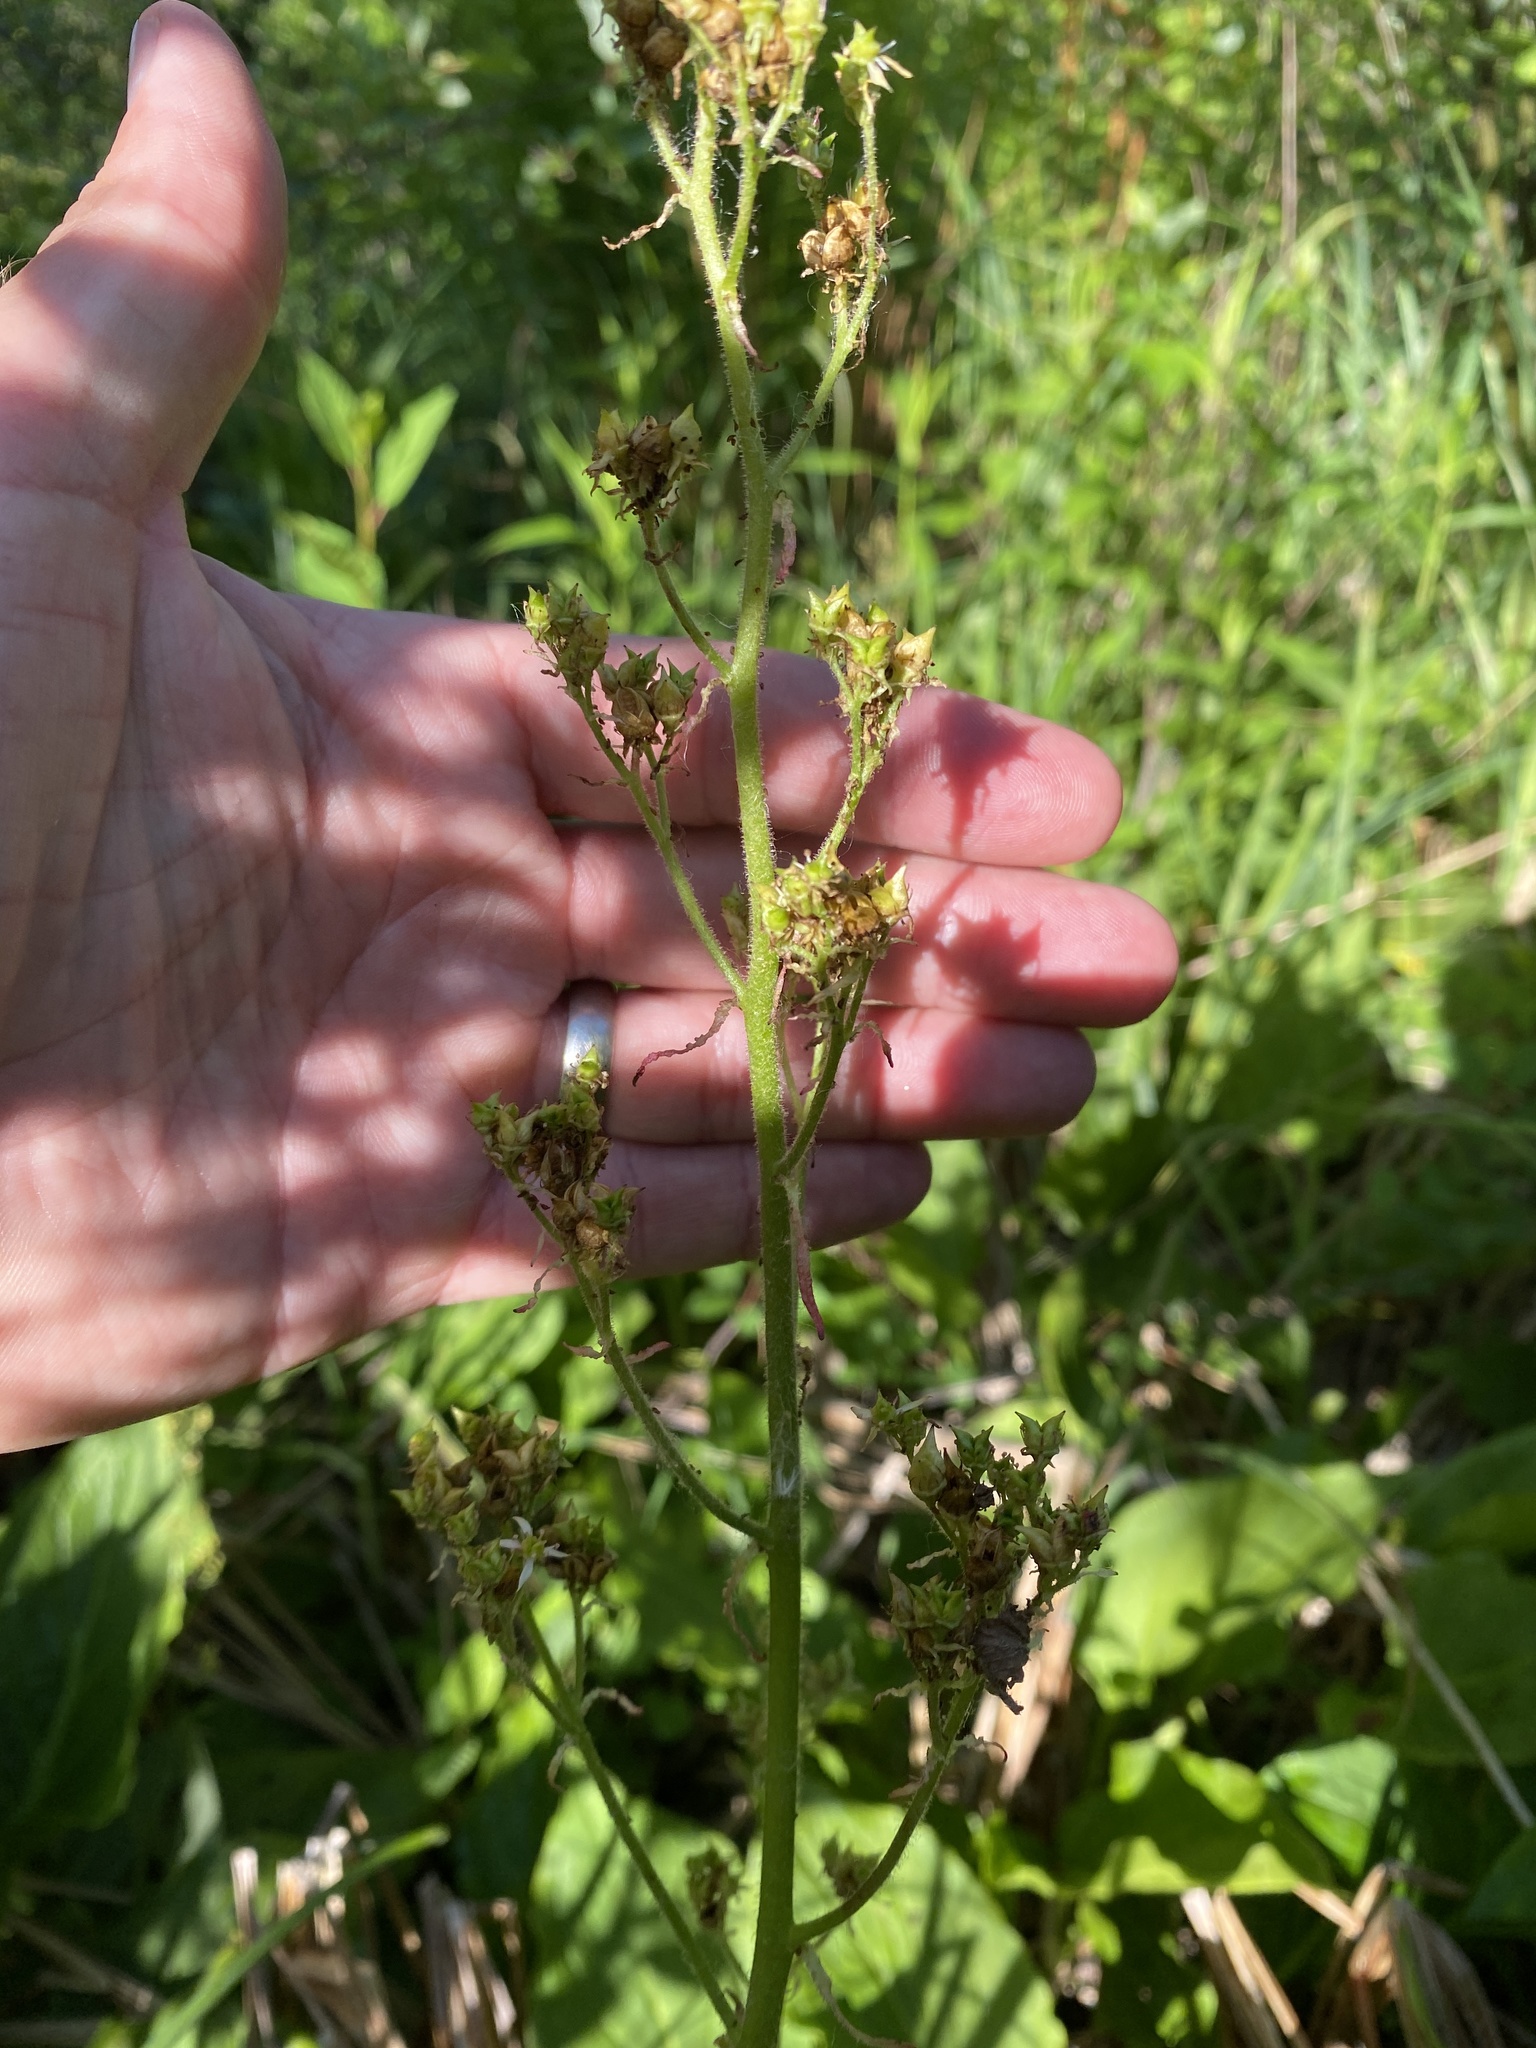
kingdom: Plantae
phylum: Tracheophyta
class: Magnoliopsida
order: Saxifragales
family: Saxifragaceae
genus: Micranthes
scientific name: Micranthes pensylvanica
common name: Marsh saxifrage
